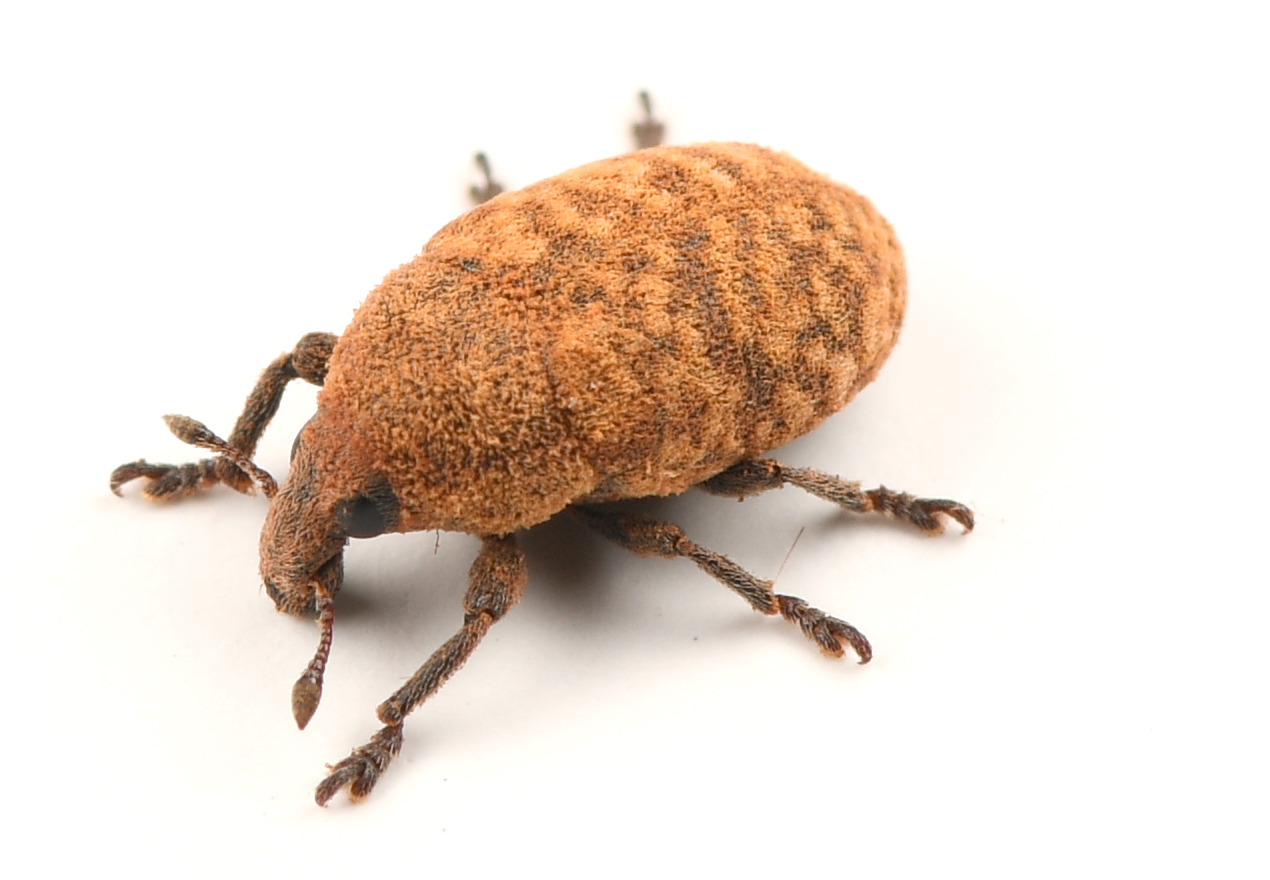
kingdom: Animalia
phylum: Arthropoda
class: Insecta
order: Coleoptera
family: Curculionidae
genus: Larinus
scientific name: Larinus obtusus
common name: Weevil
